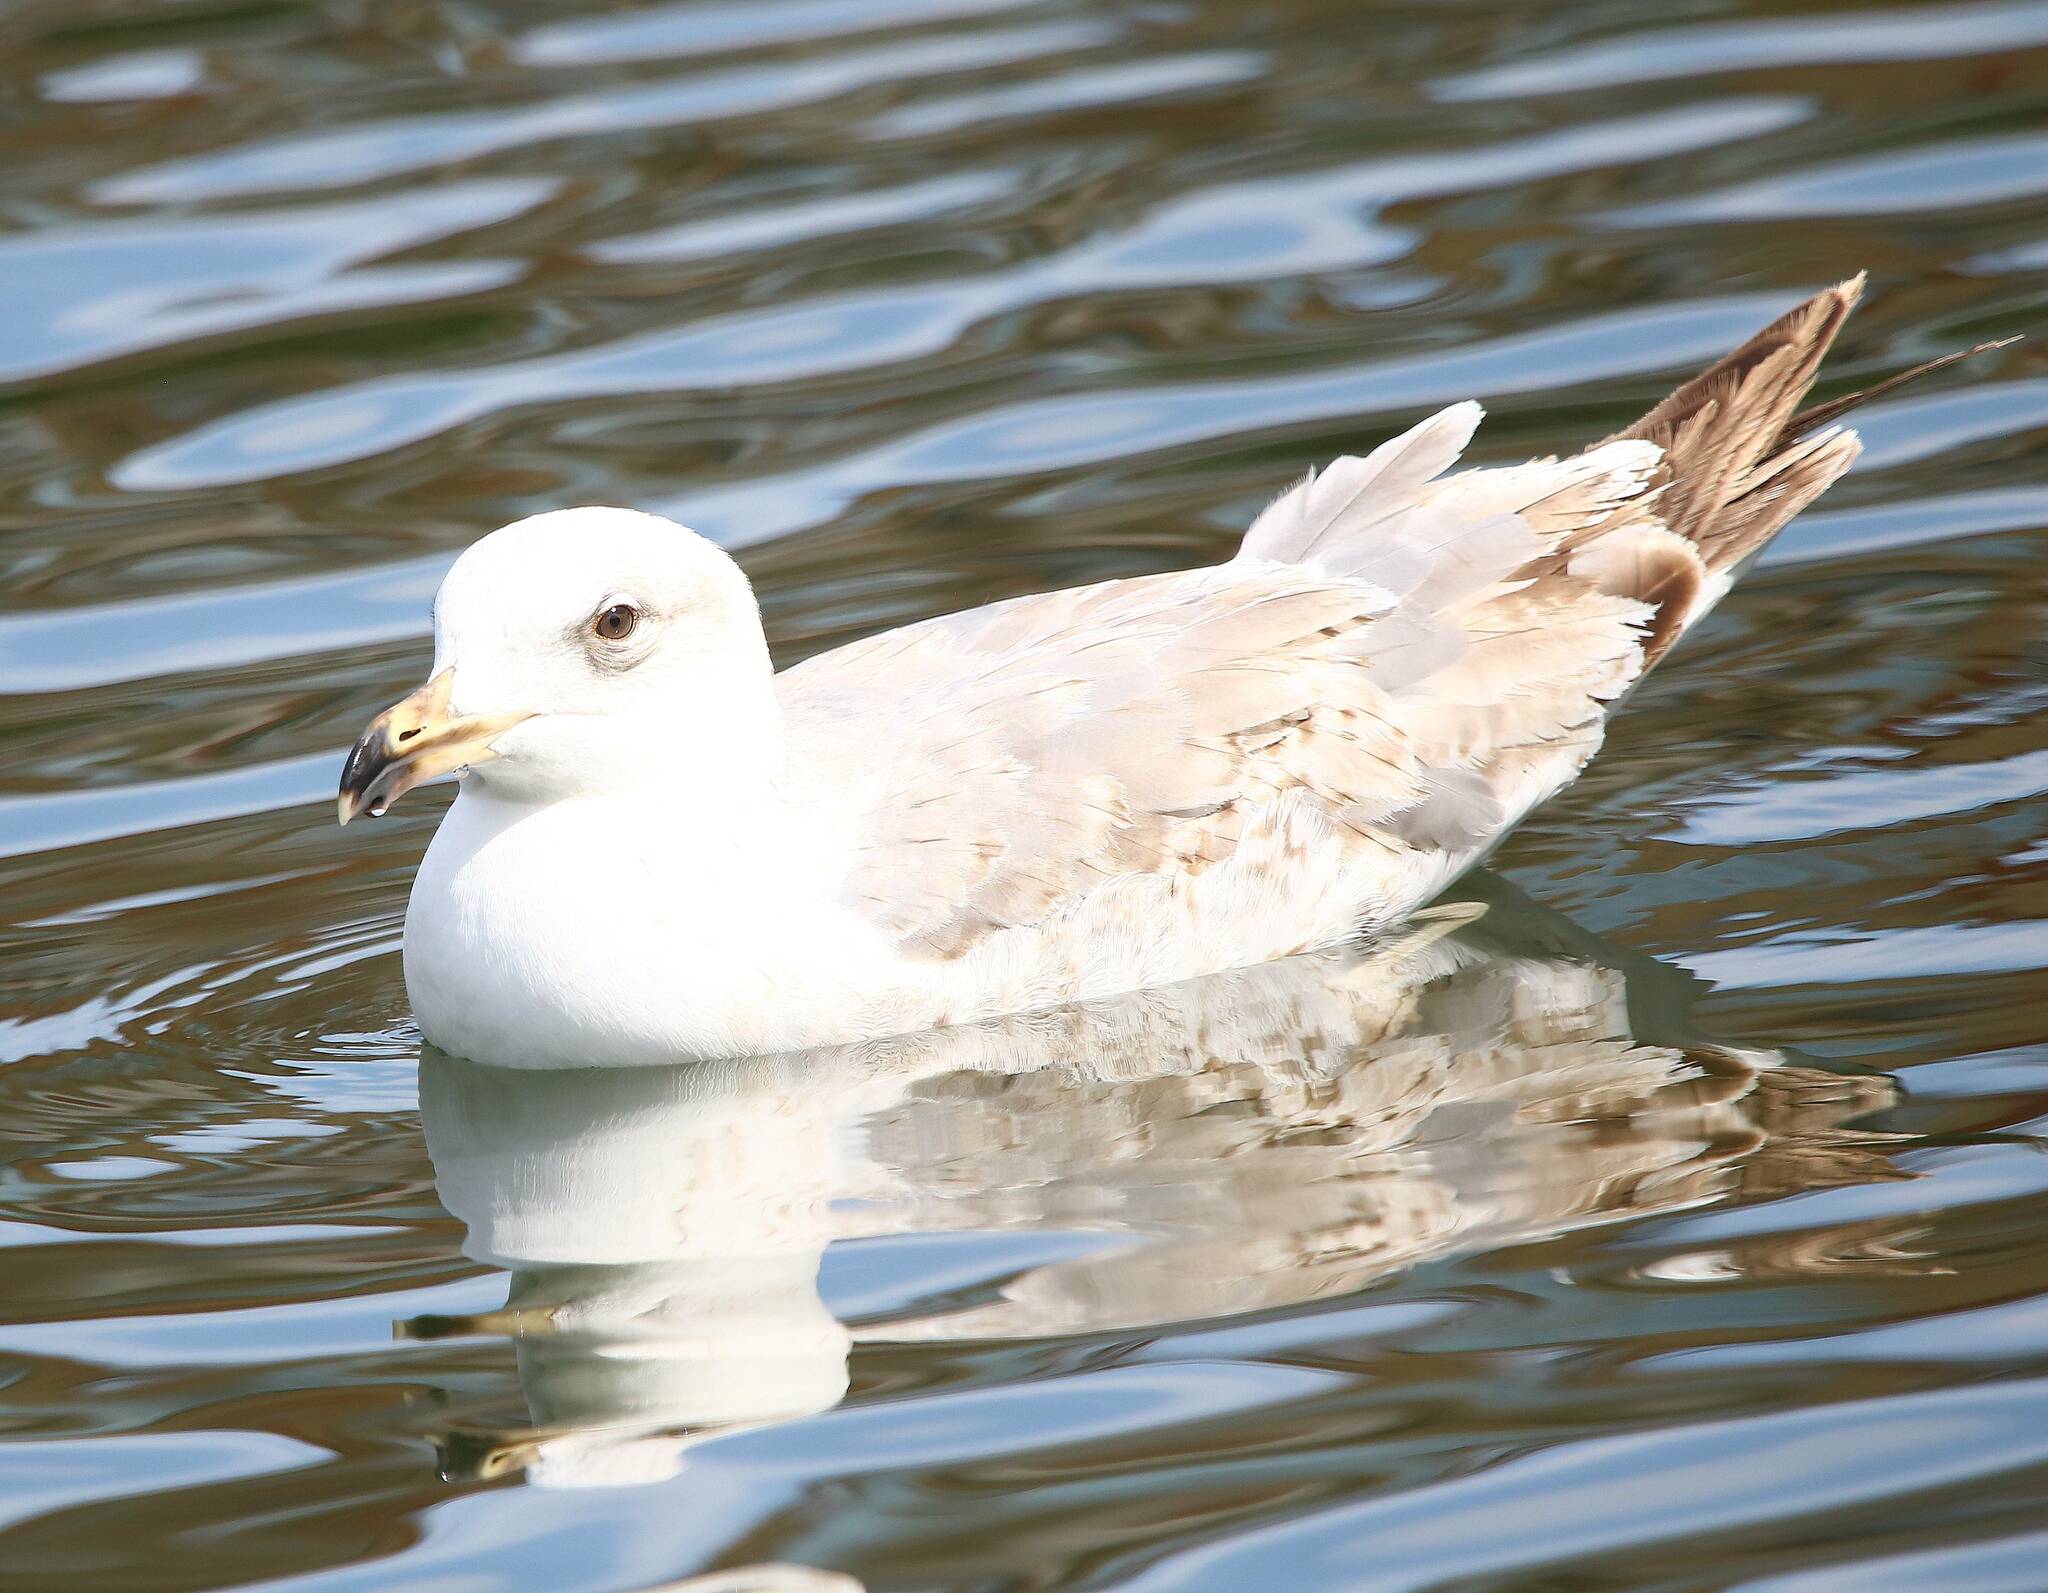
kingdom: Animalia
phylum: Chordata
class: Aves
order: Charadriiformes
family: Laridae
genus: Larus
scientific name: Larus michahellis
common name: Yellow-legged gull
